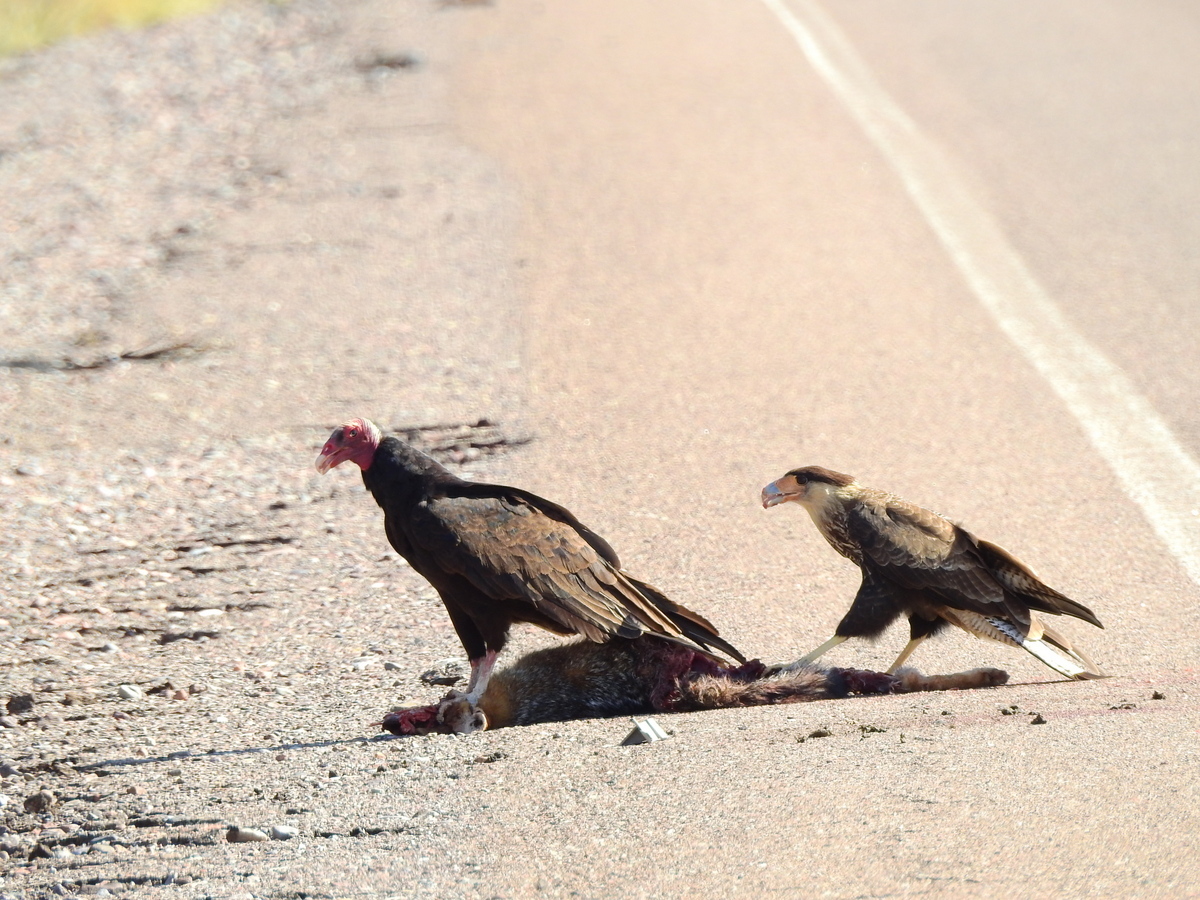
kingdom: Animalia
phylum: Chordata
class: Aves
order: Accipitriformes
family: Cathartidae
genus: Cathartes
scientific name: Cathartes aura
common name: Turkey vulture
